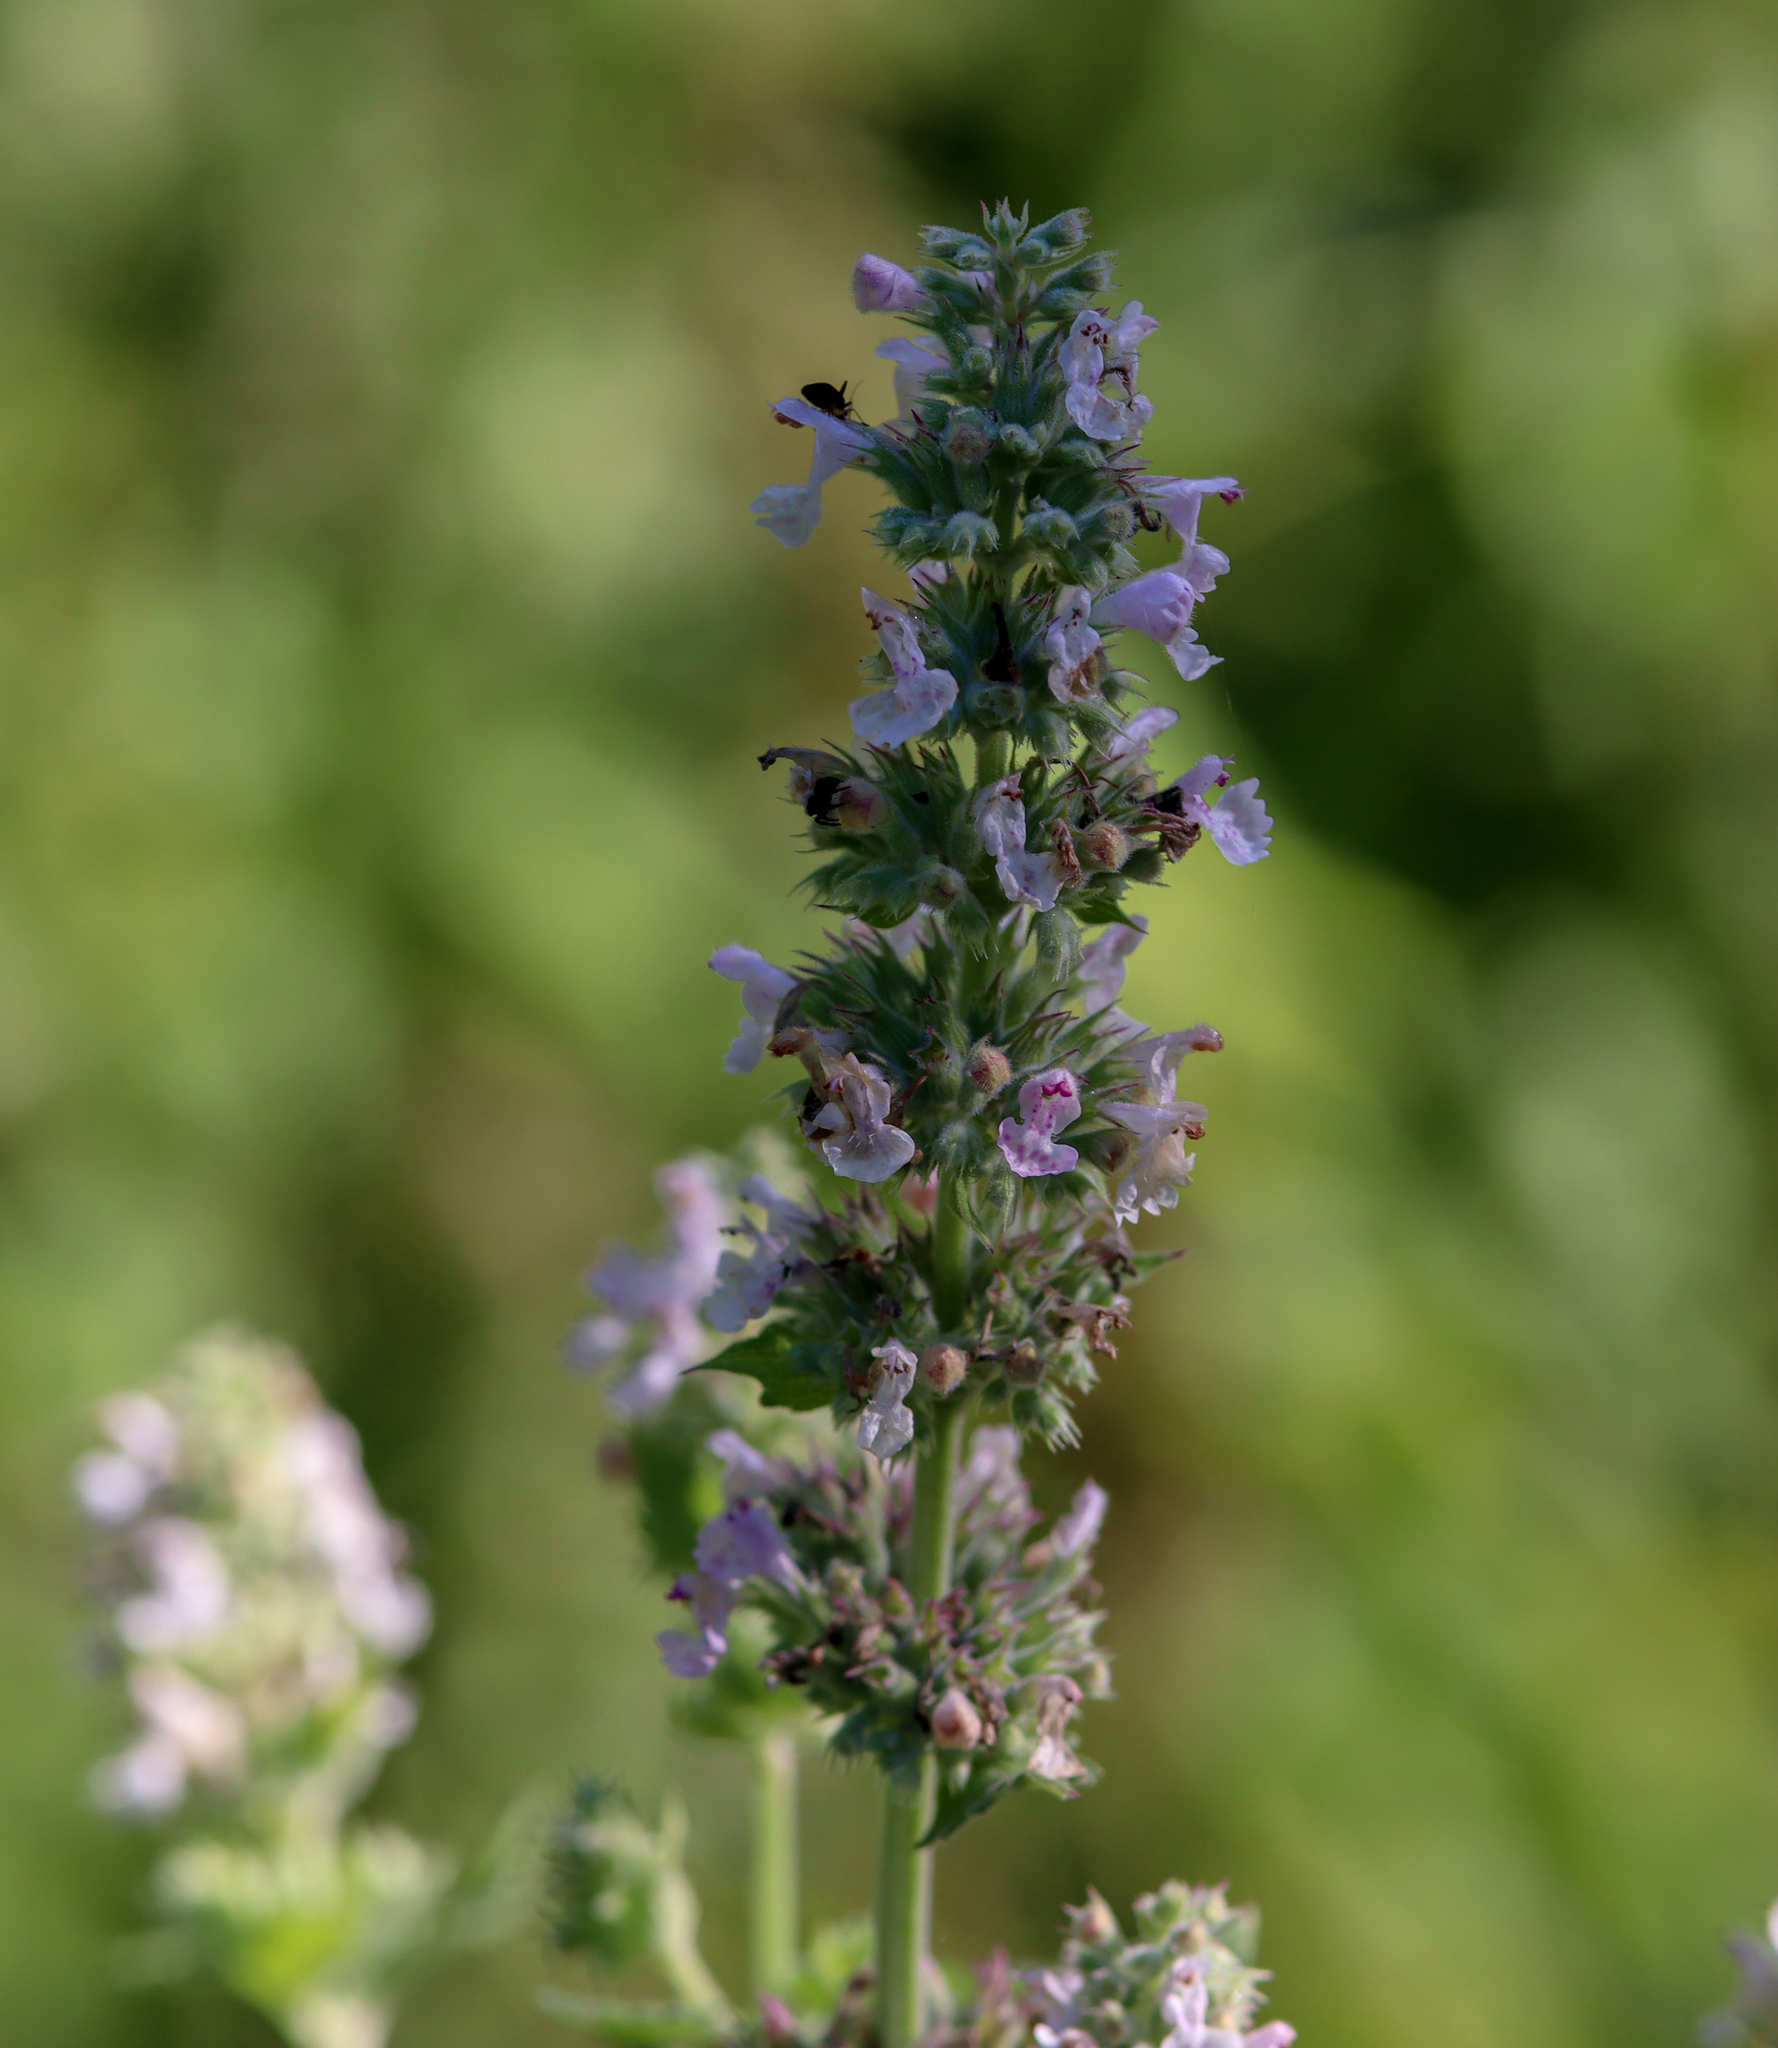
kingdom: Plantae
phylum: Tracheophyta
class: Magnoliopsida
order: Lamiales
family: Lamiaceae
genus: Nepeta
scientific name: Nepeta cataria
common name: Catnip
